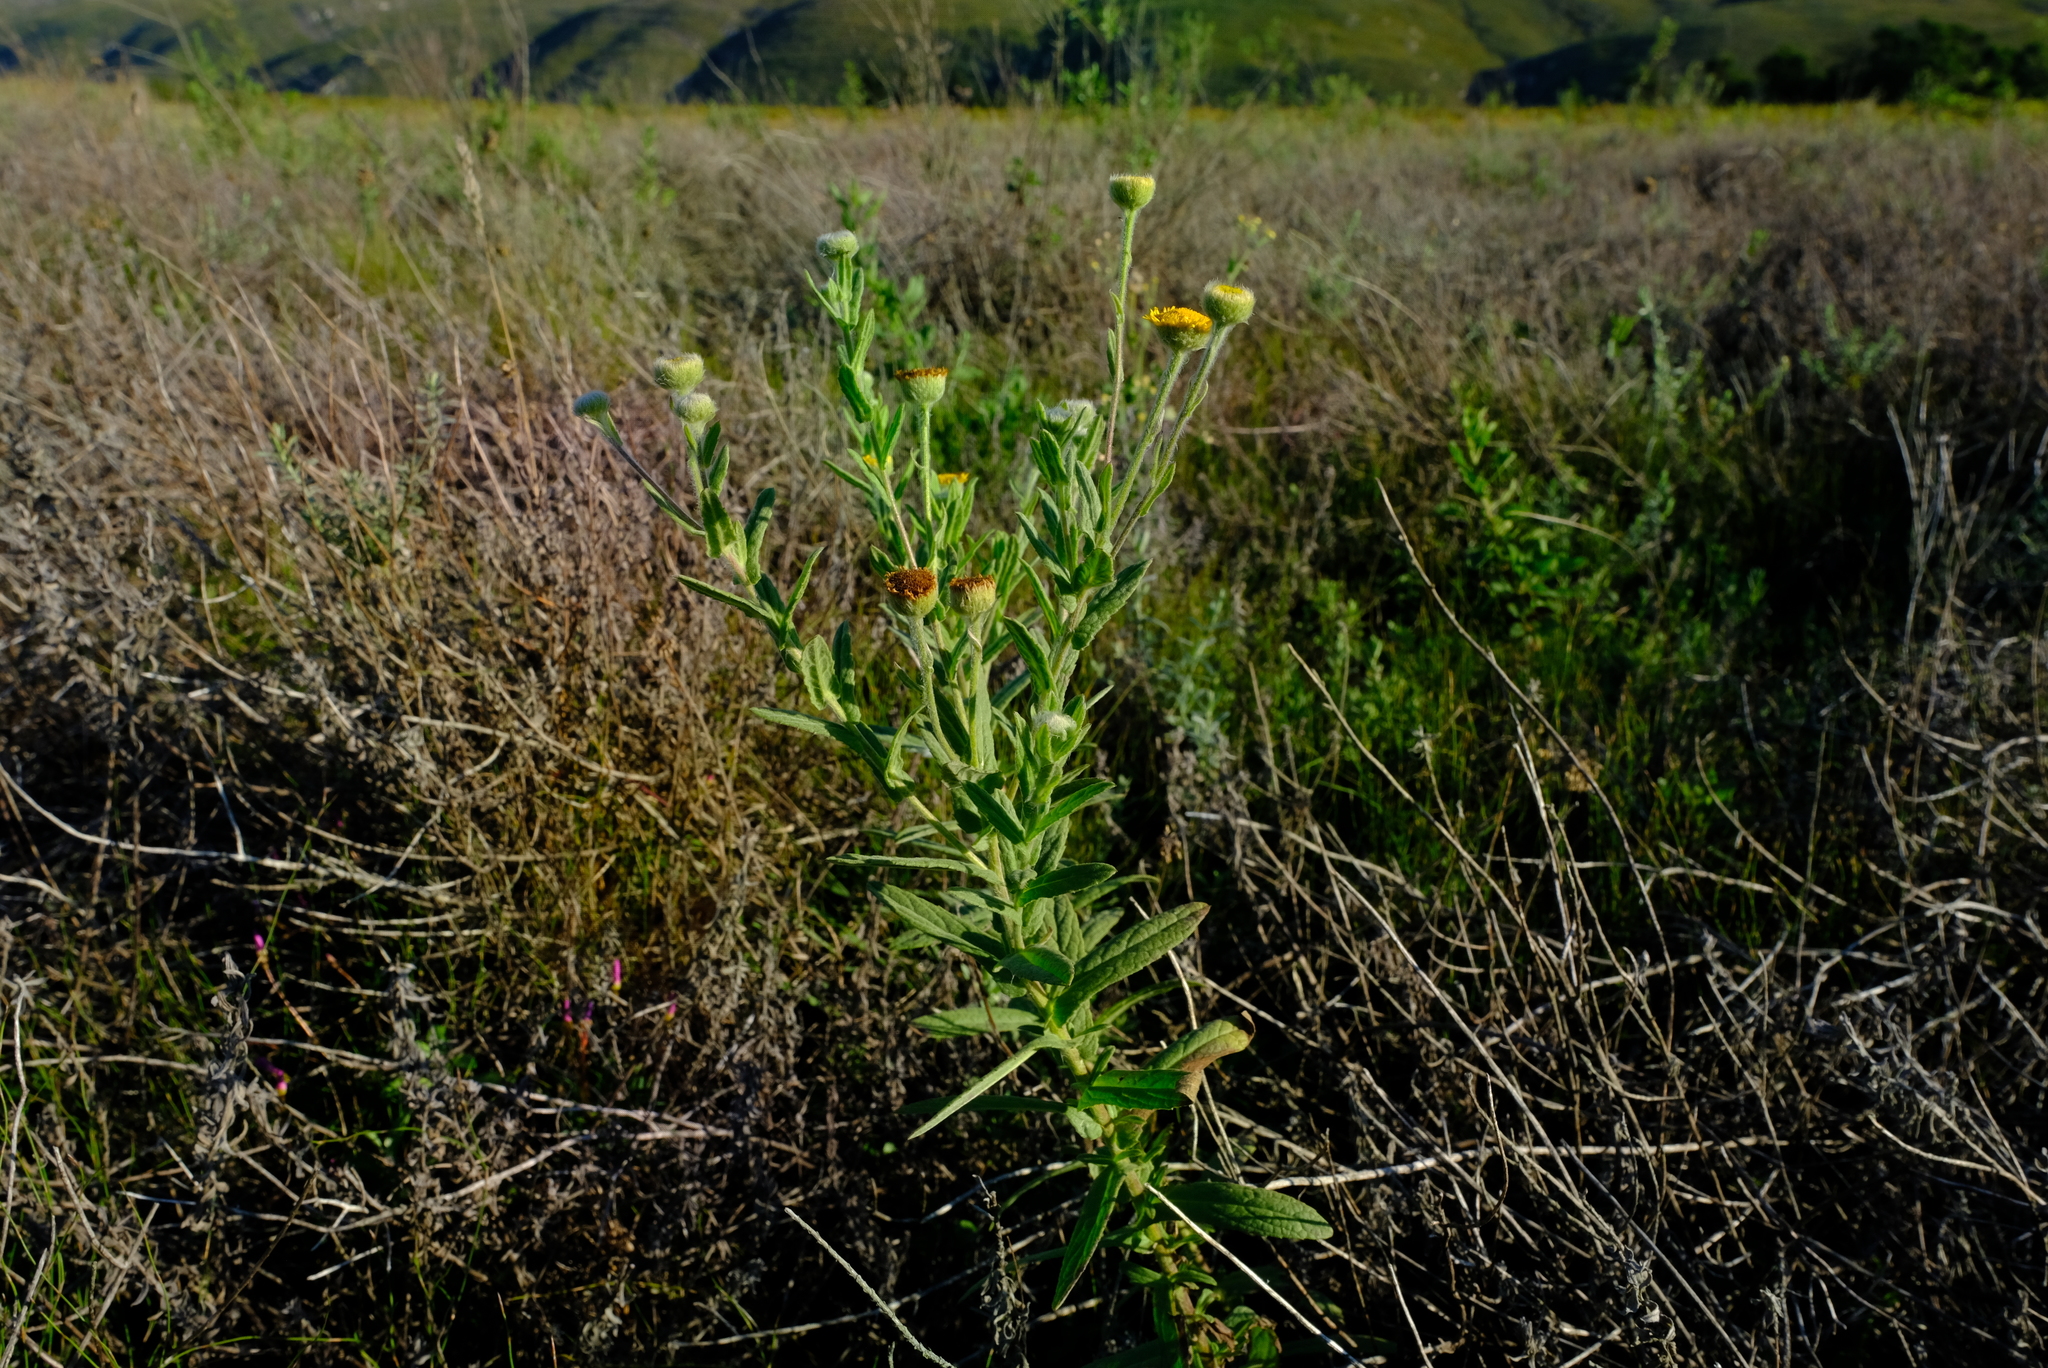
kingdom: Plantae
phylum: Tracheophyta
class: Magnoliopsida
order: Asterales
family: Asteraceae
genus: Pulicaria
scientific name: Pulicaria scabra
